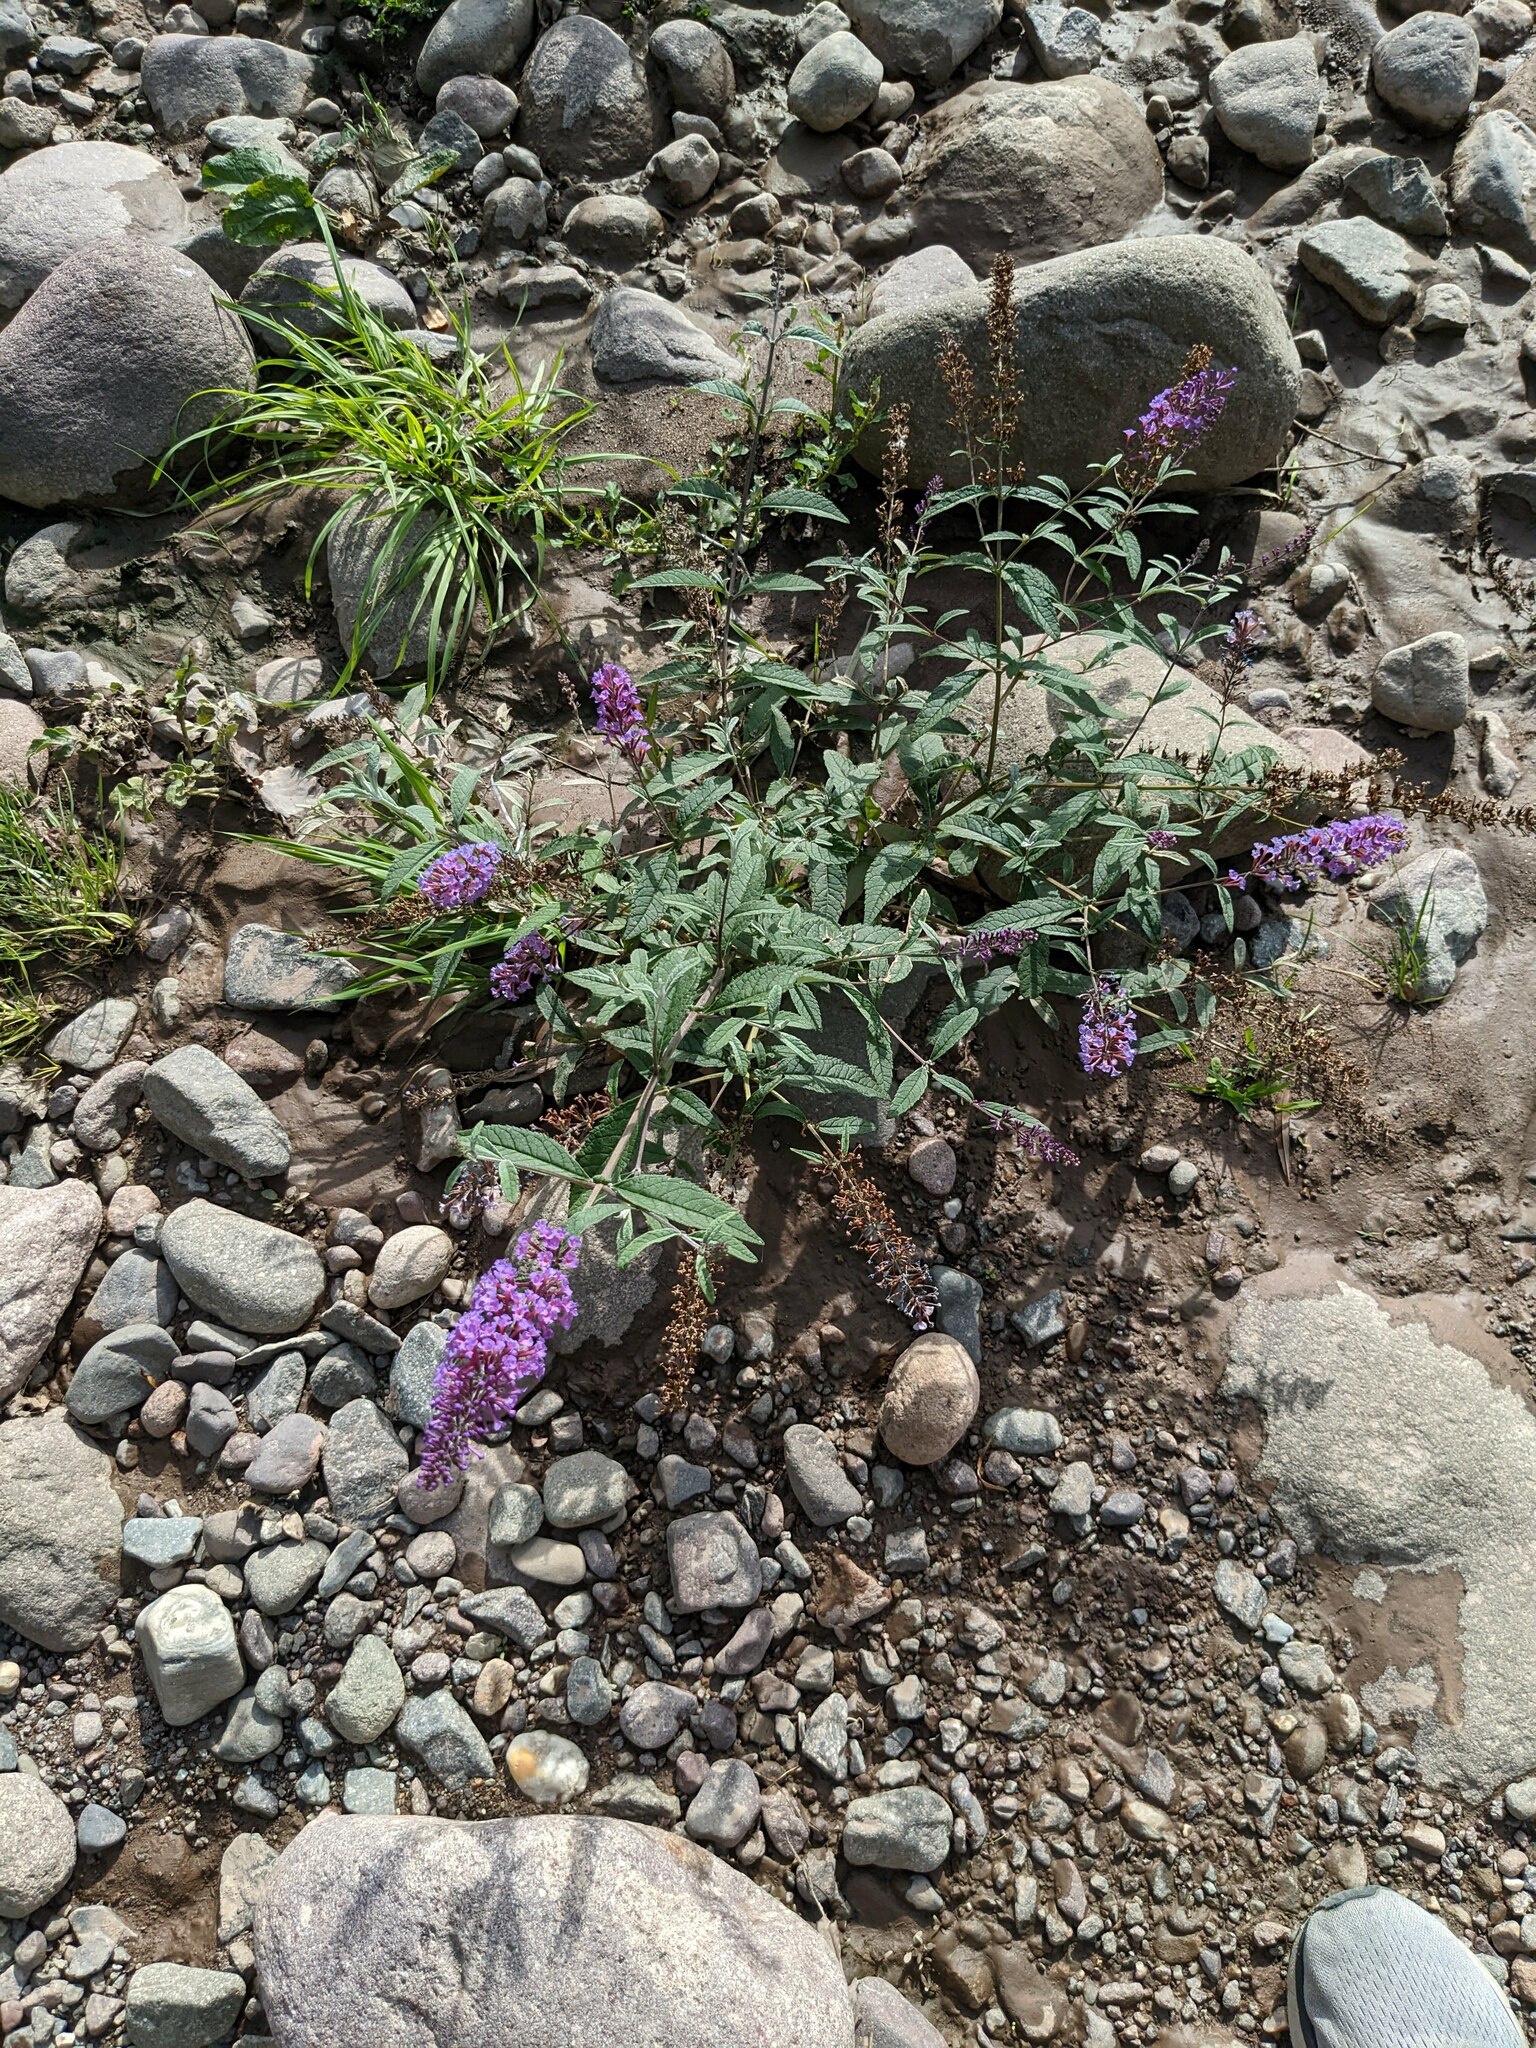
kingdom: Plantae
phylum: Tracheophyta
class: Magnoliopsida
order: Lamiales
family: Scrophulariaceae
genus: Buddleja
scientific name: Buddleja davidii
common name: Butterfly-bush
